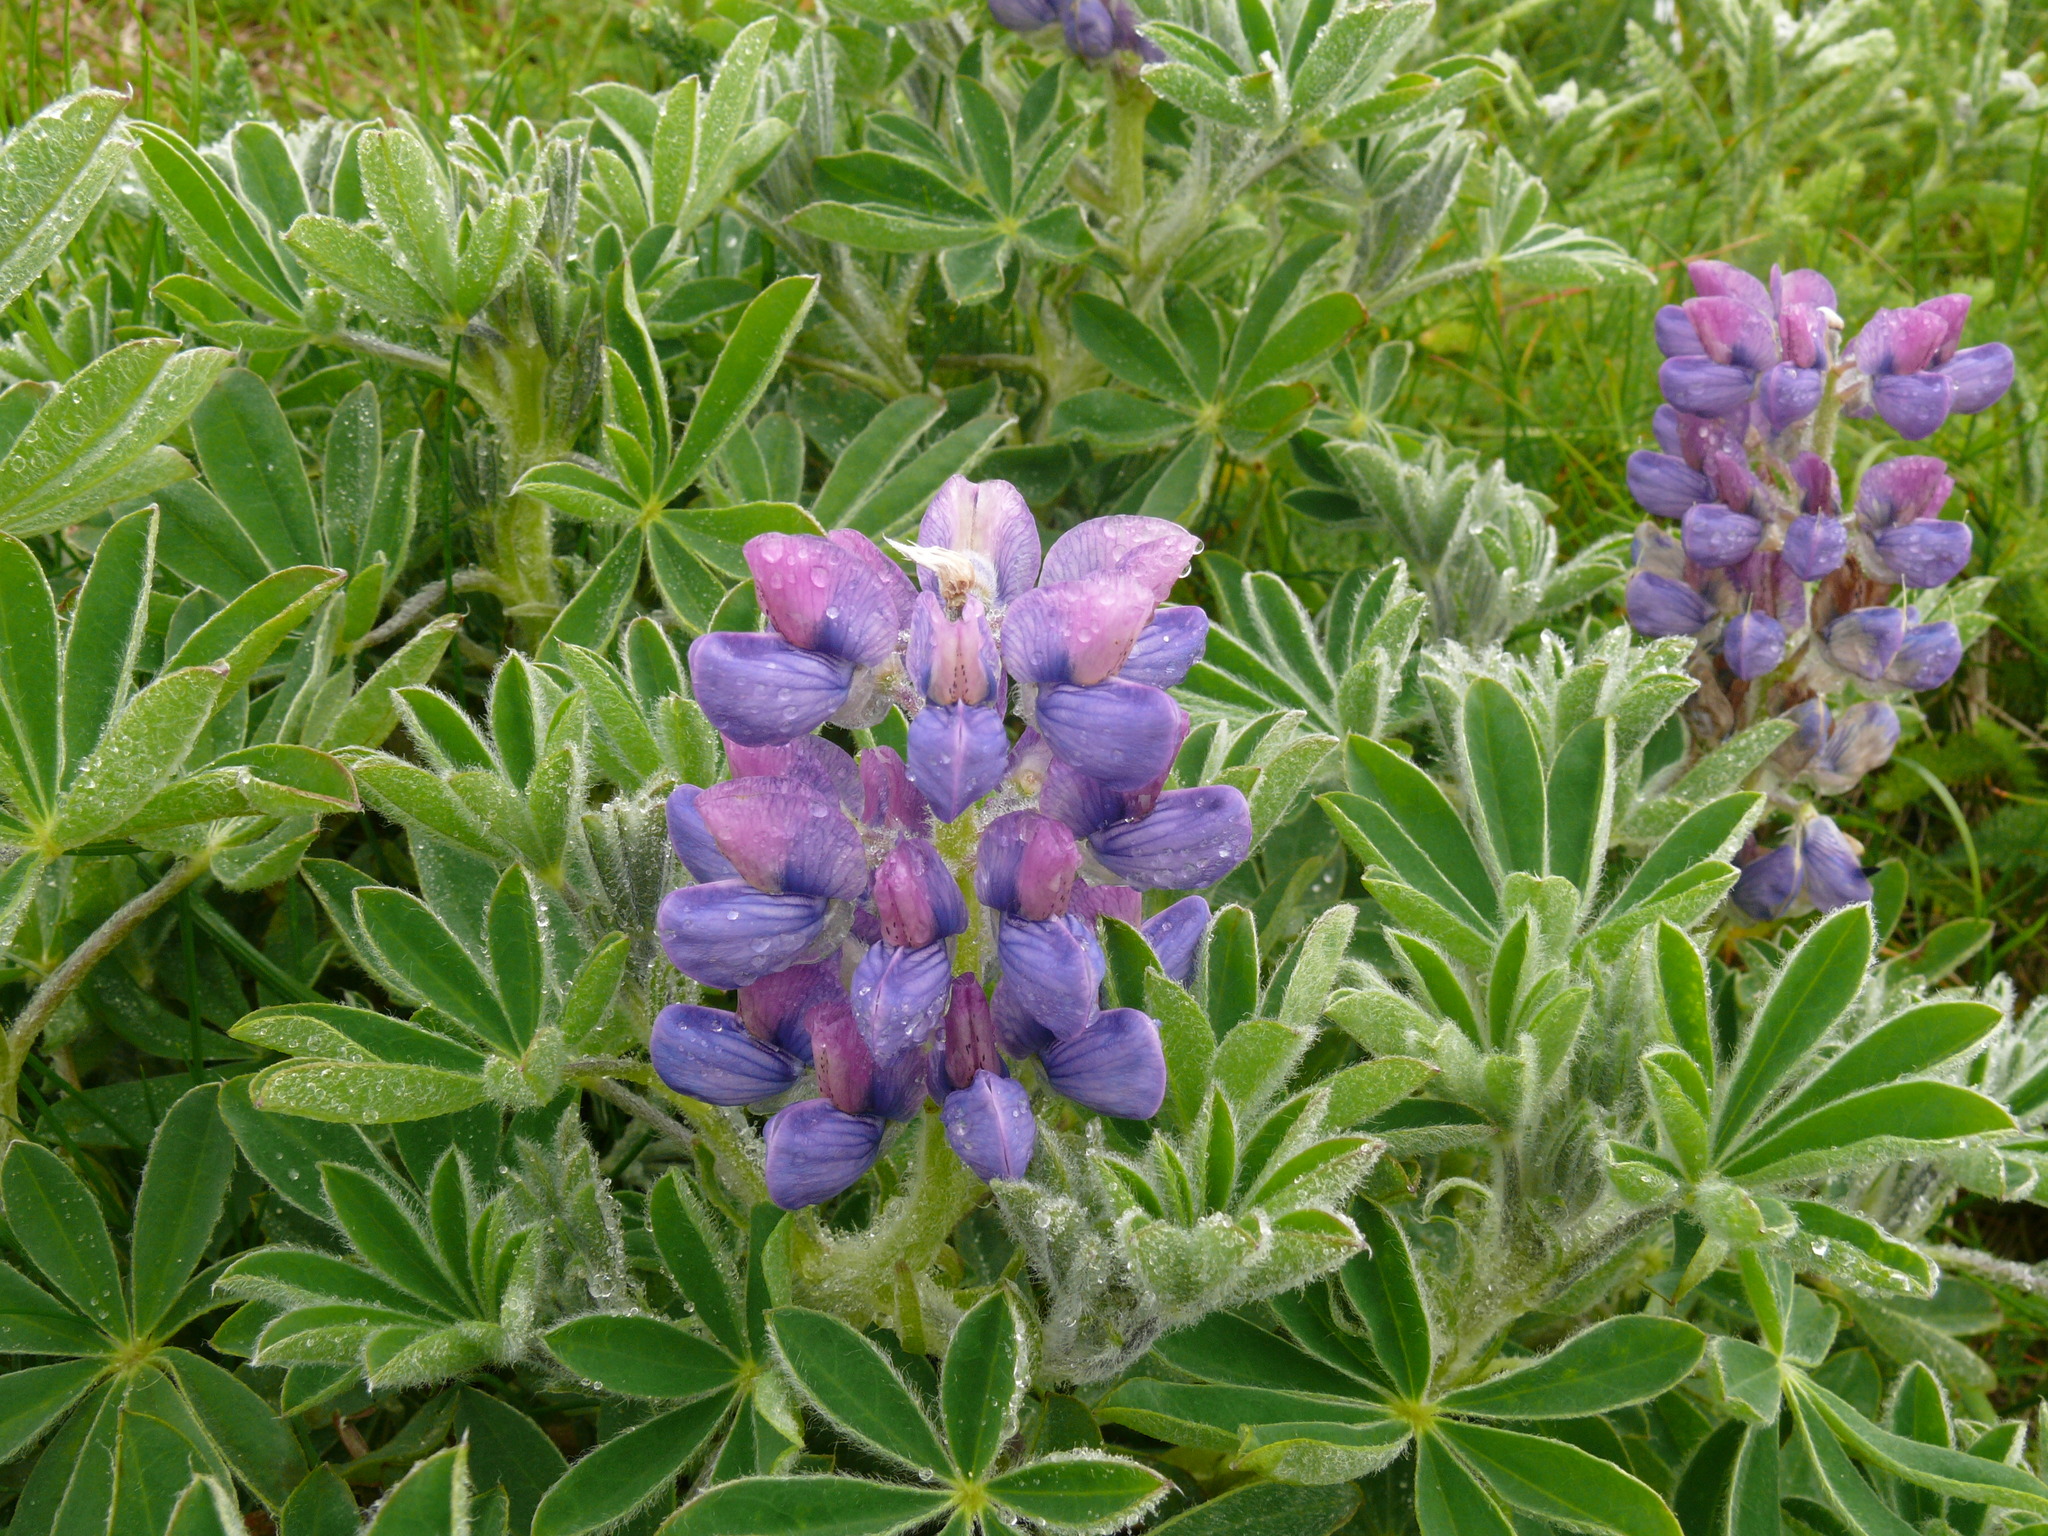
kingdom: Plantae
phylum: Tracheophyta
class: Magnoliopsida
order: Fabales
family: Fabaceae
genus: Lupinus
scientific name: Lupinus nootkatensis
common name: Nootka lupine
